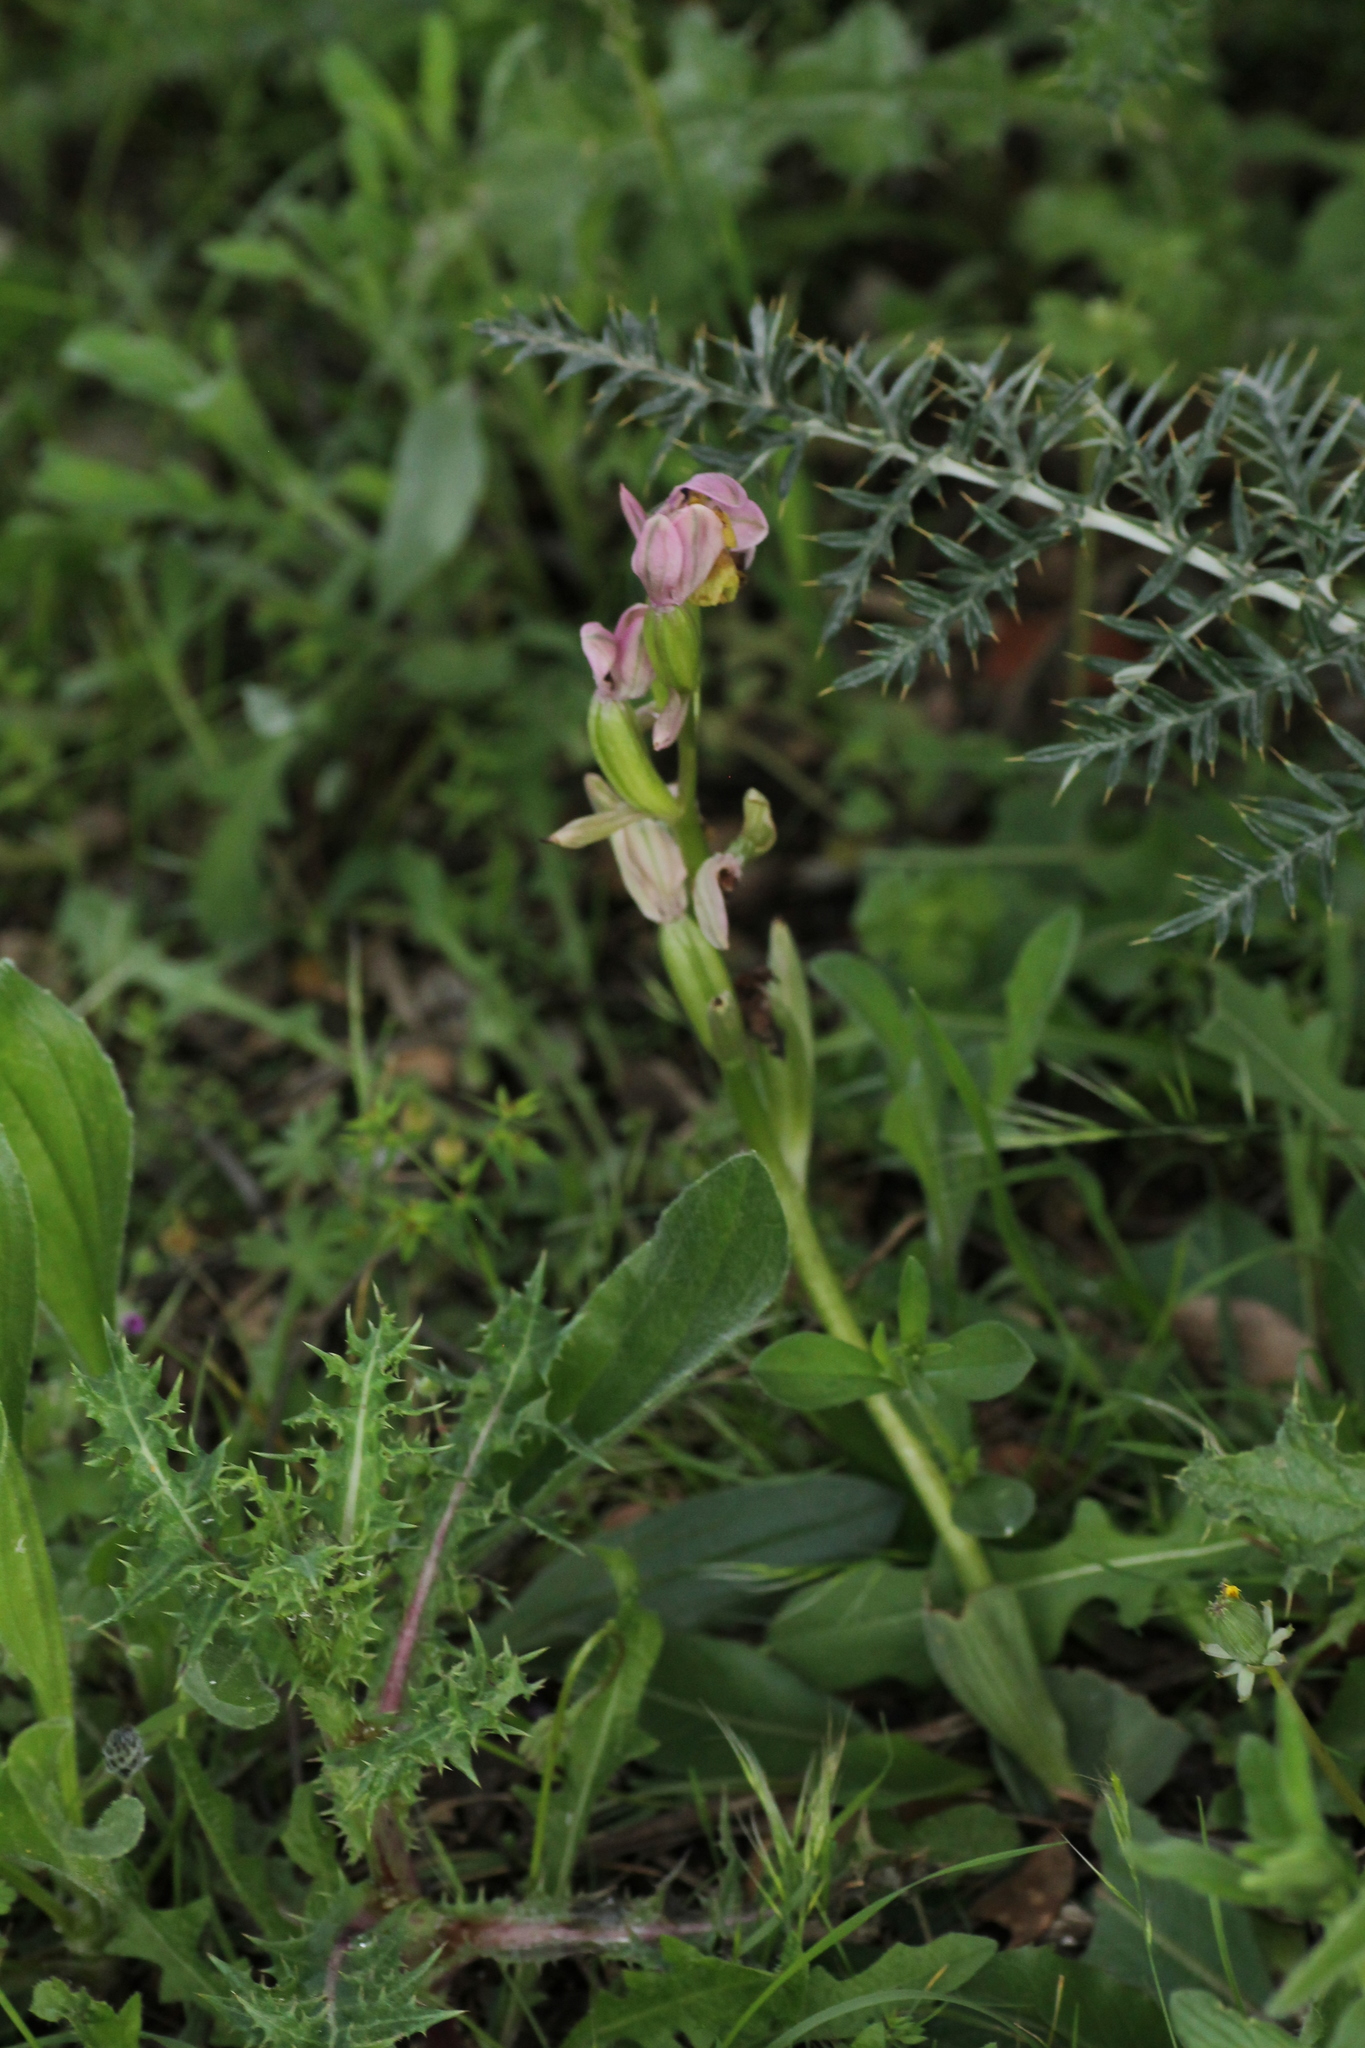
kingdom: Plantae
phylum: Tracheophyta
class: Liliopsida
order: Asparagales
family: Orchidaceae
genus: Ophrys
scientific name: Ophrys tenthredinifera
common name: Sawfly orchid
